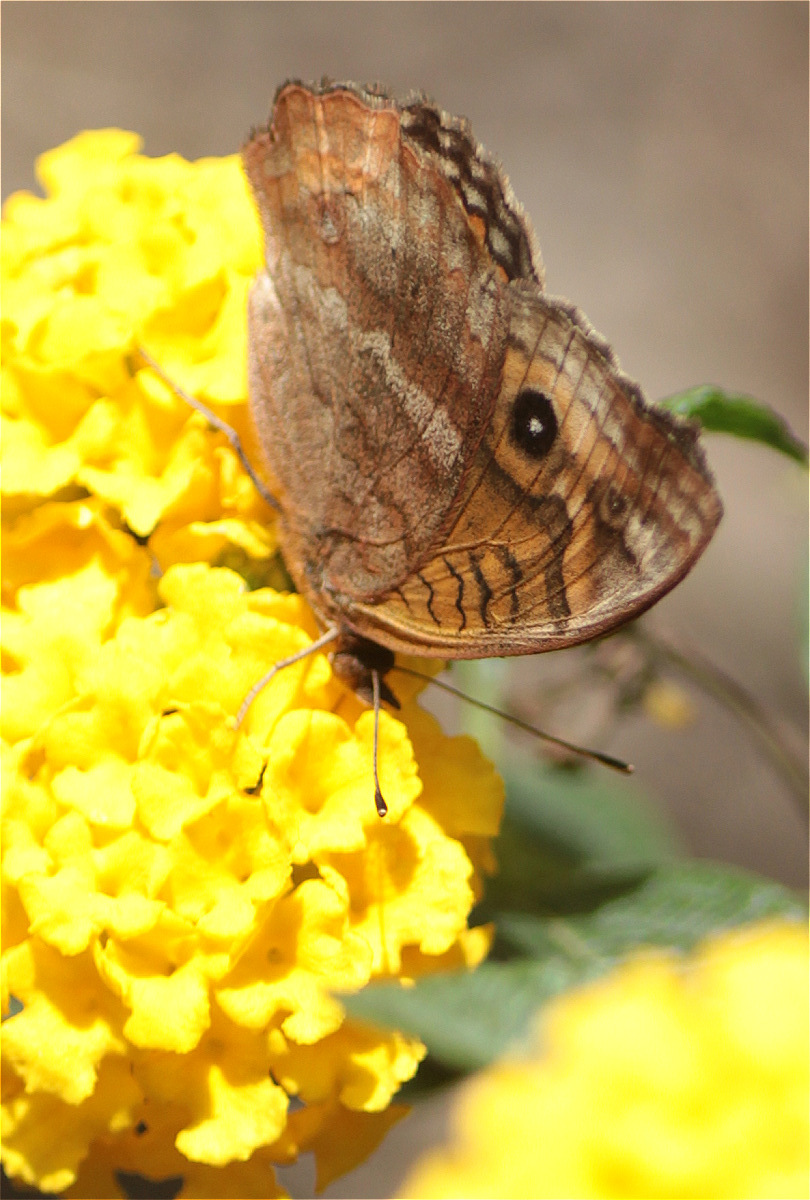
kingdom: Animalia
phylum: Arthropoda
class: Insecta
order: Lepidoptera
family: Nymphalidae
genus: Junonia
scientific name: Junonia evarete
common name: Black mangrove buckeye
